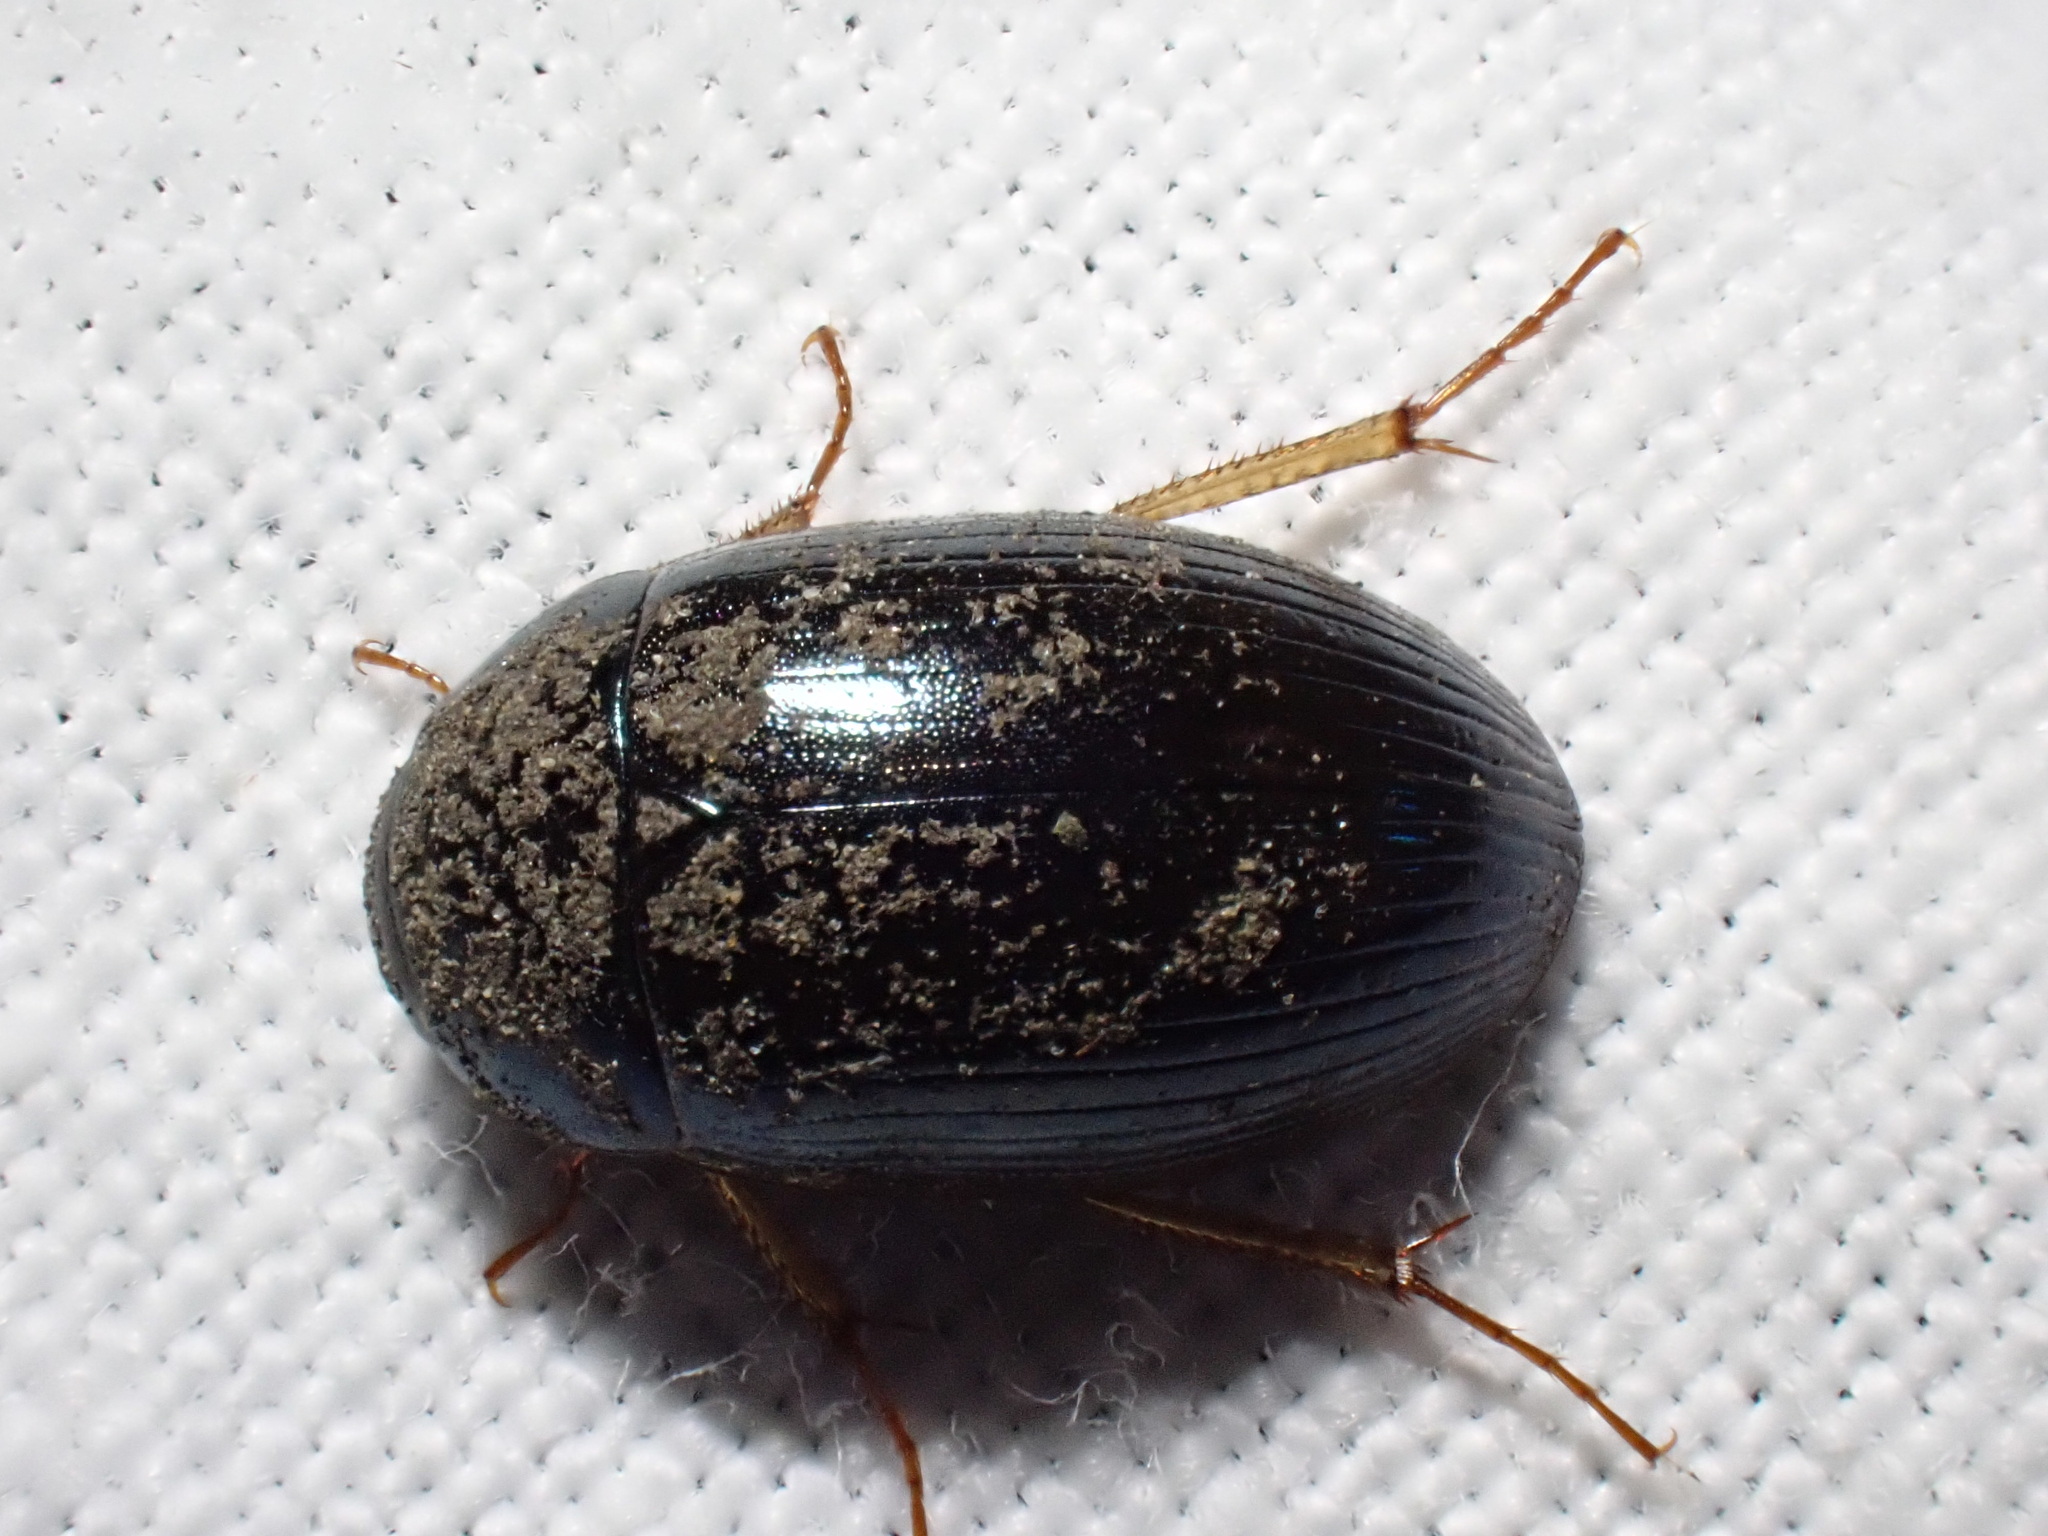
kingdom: Animalia
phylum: Arthropoda
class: Insecta
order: Coleoptera
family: Hydrophilidae
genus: Hydrobius
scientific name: Hydrobius
